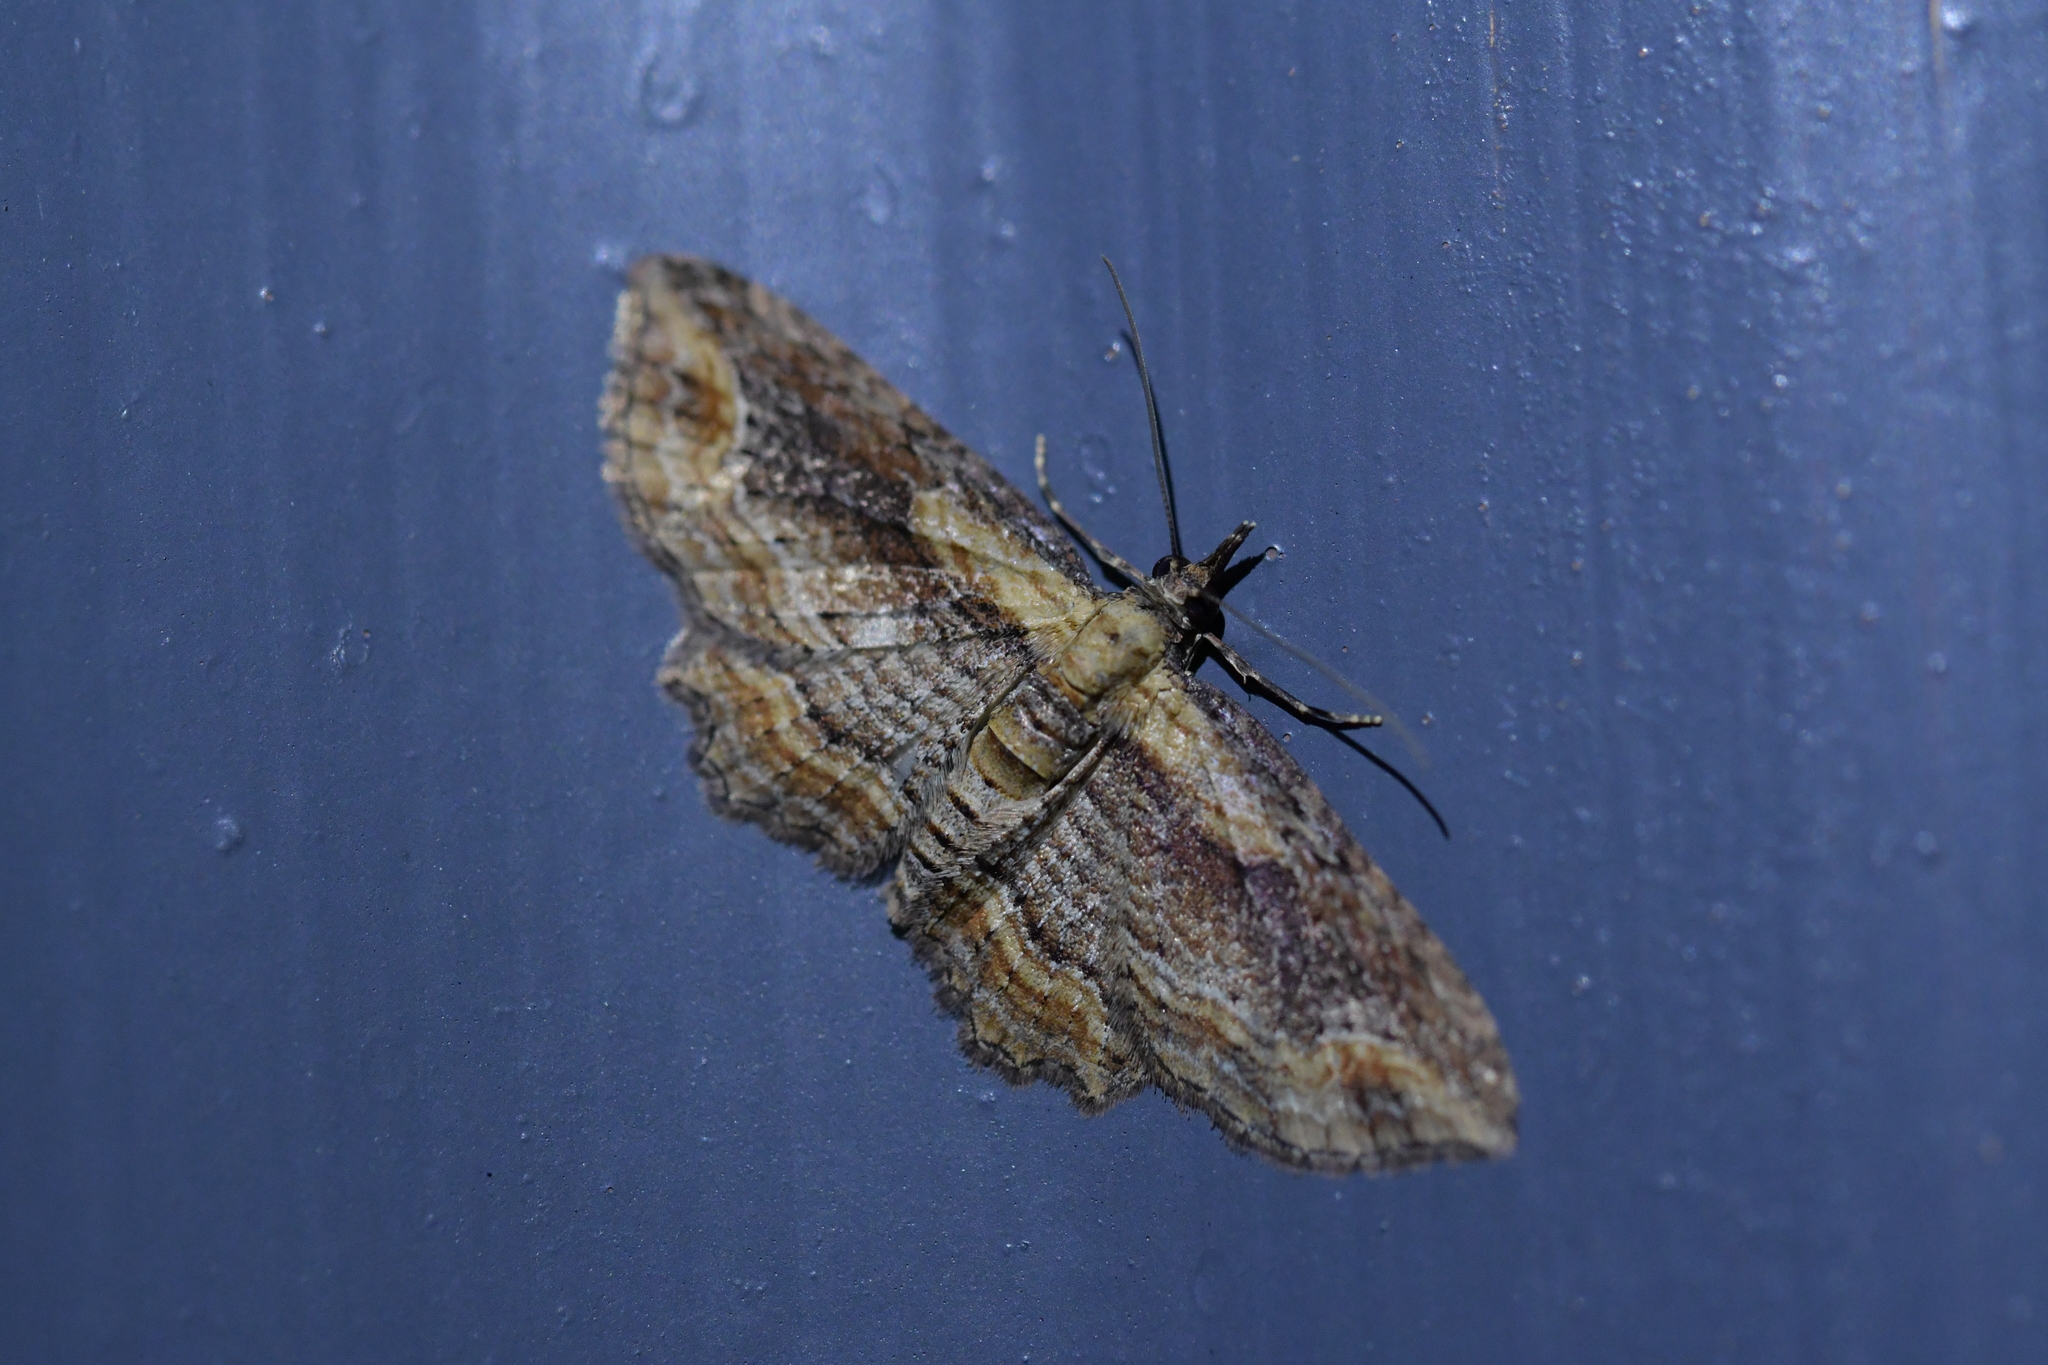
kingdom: Animalia
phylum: Arthropoda
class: Insecta
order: Lepidoptera
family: Geometridae
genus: Chloroclystis
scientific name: Chloroclystis filata
